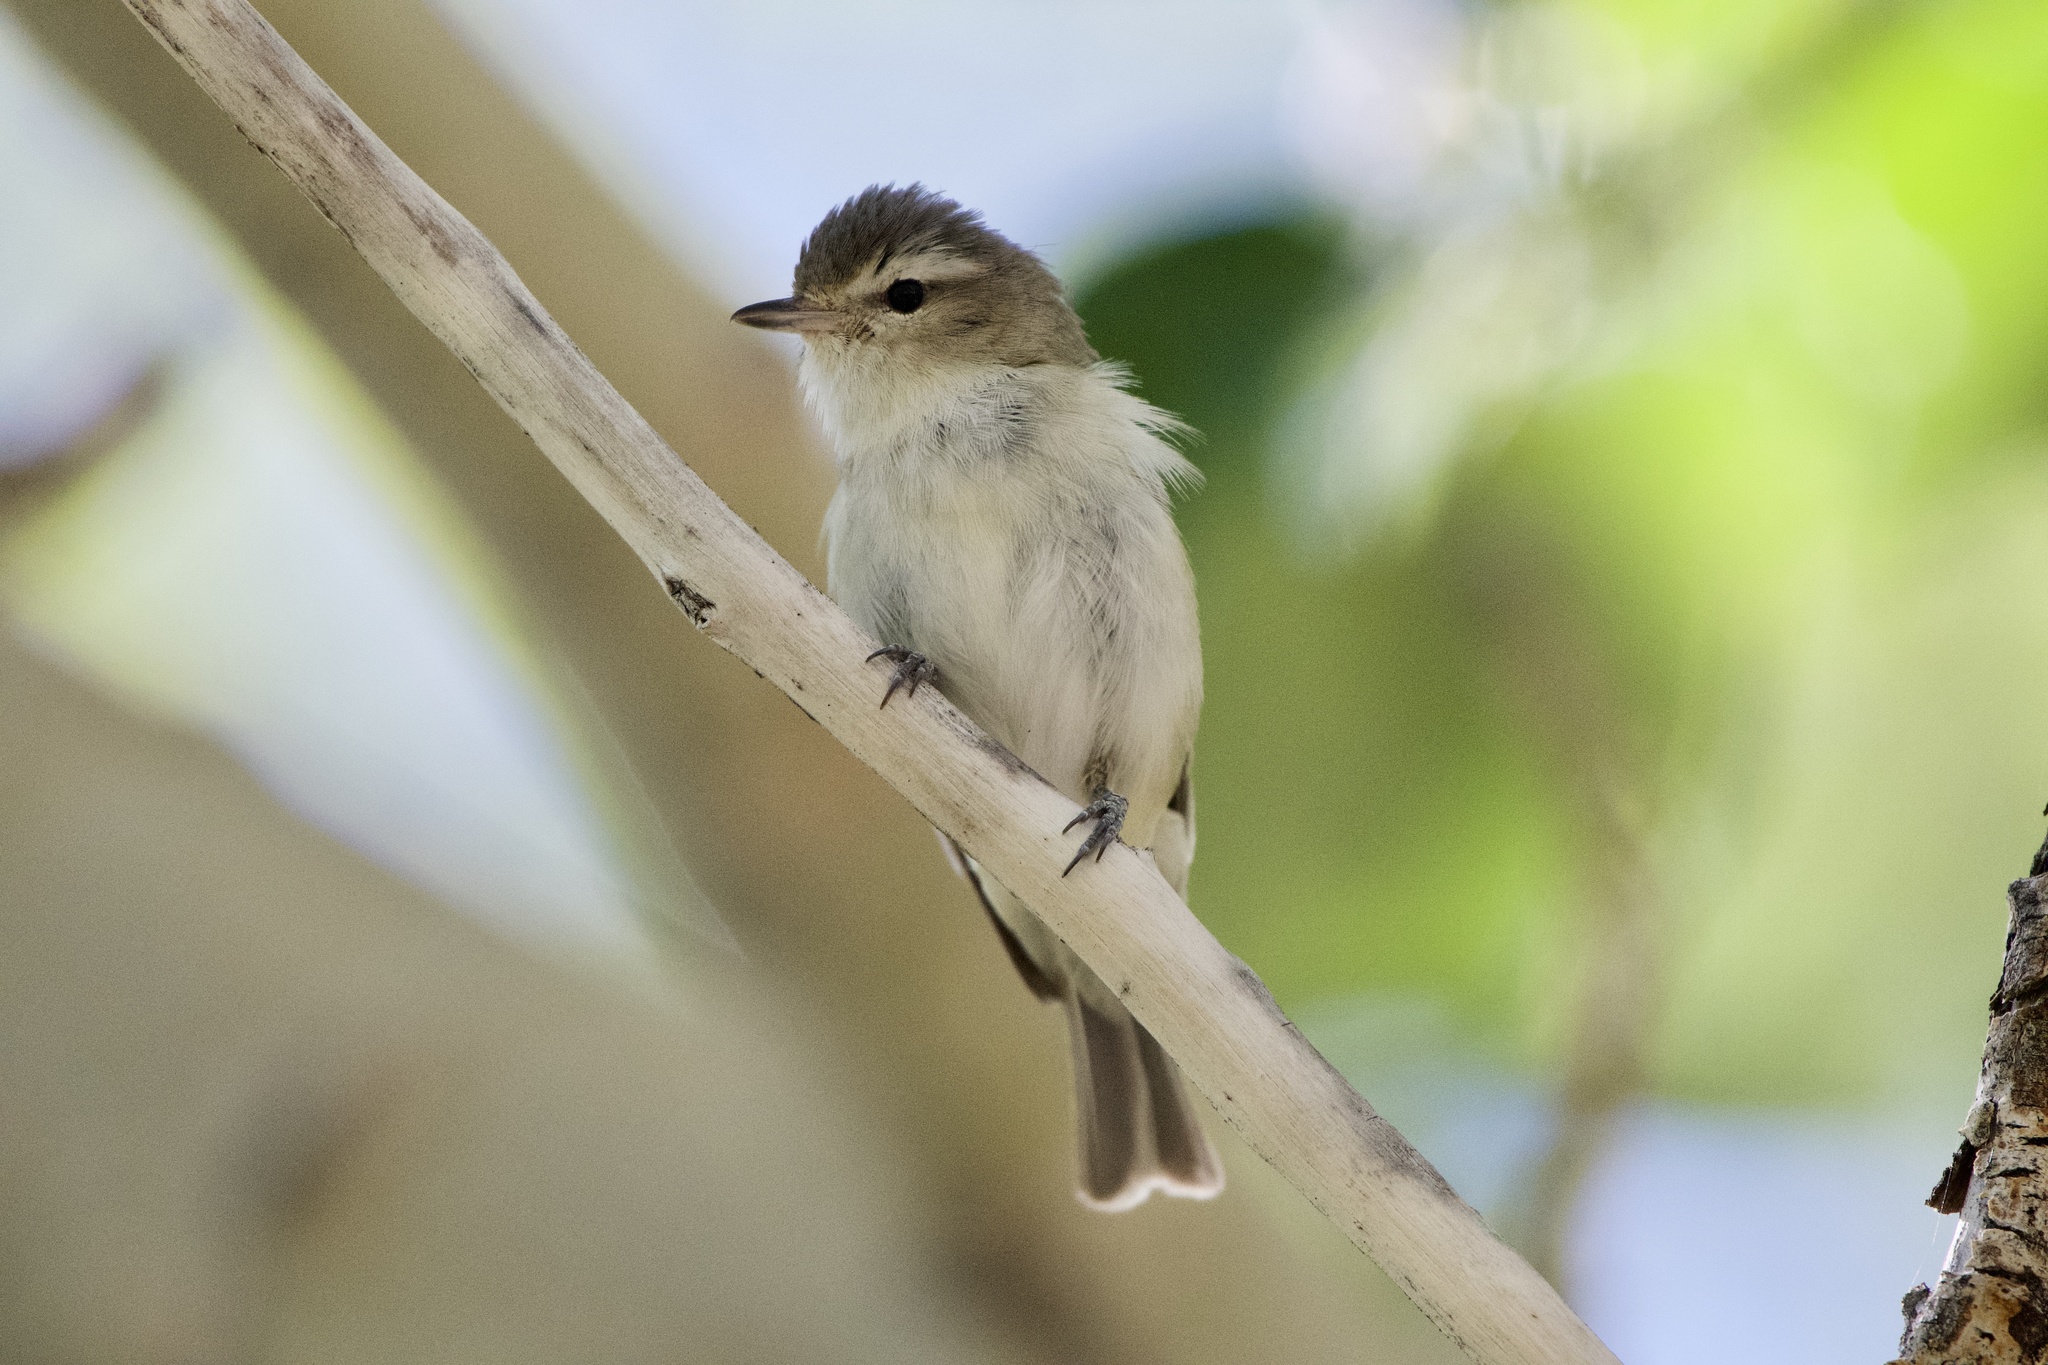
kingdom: Animalia
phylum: Chordata
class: Aves
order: Passeriformes
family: Vireonidae
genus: Vireo
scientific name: Vireo gilvus
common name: Warbling vireo
